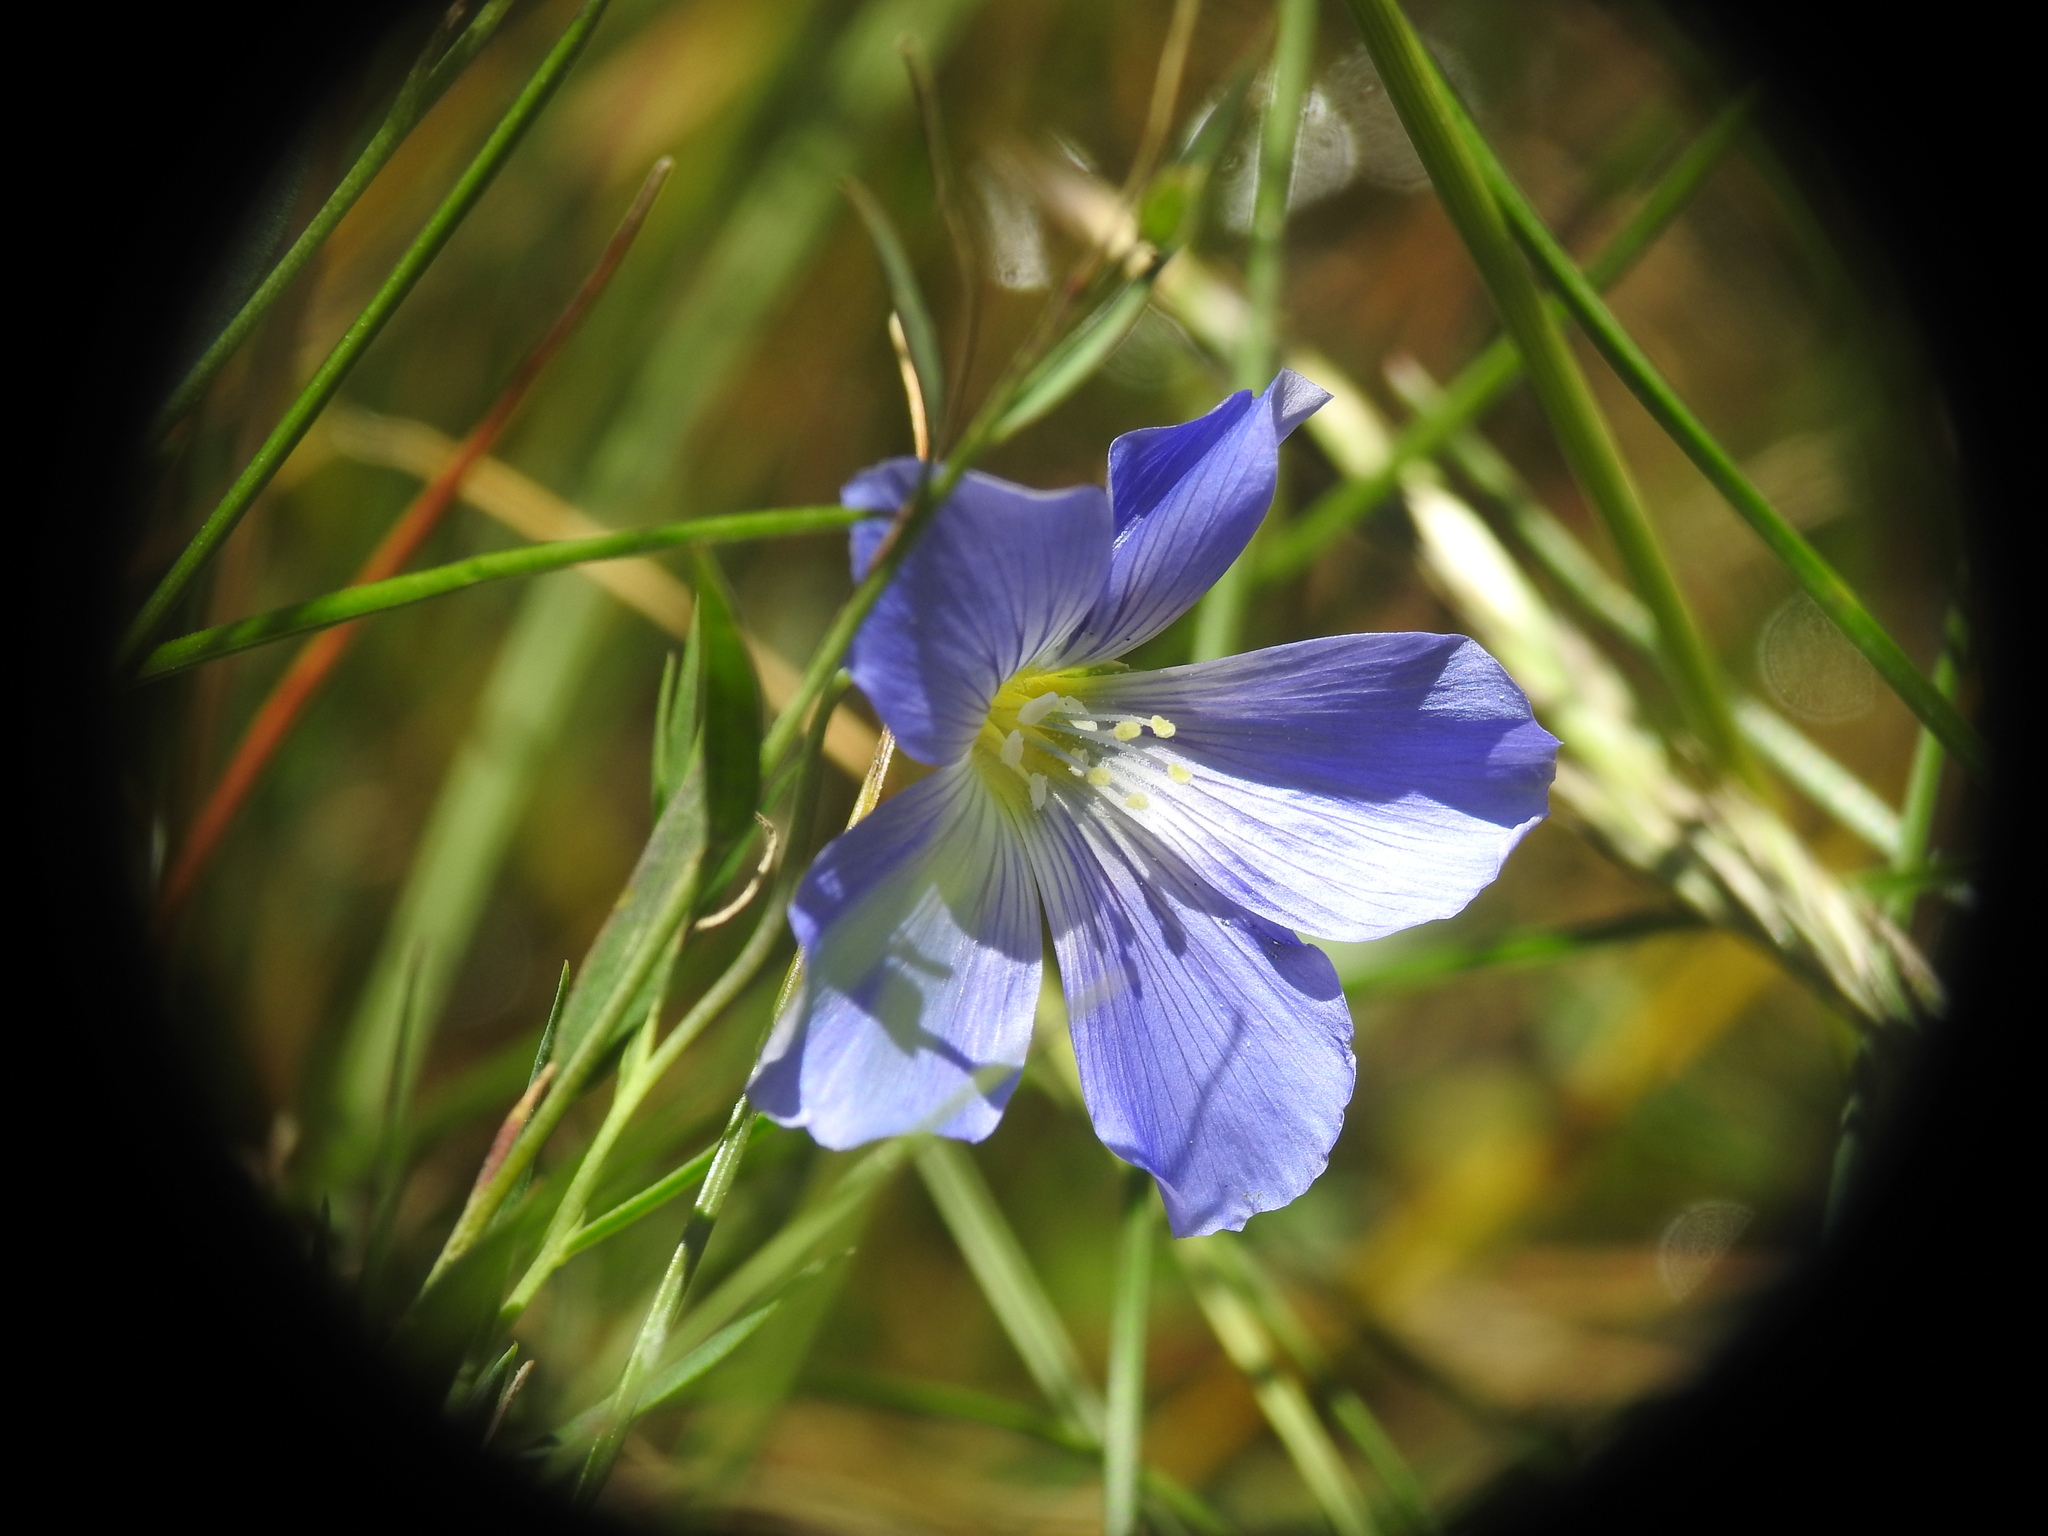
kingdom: Plantae
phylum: Tracheophyta
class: Magnoliopsida
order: Malpighiales
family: Linaceae
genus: Linum
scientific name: Linum alpinum
